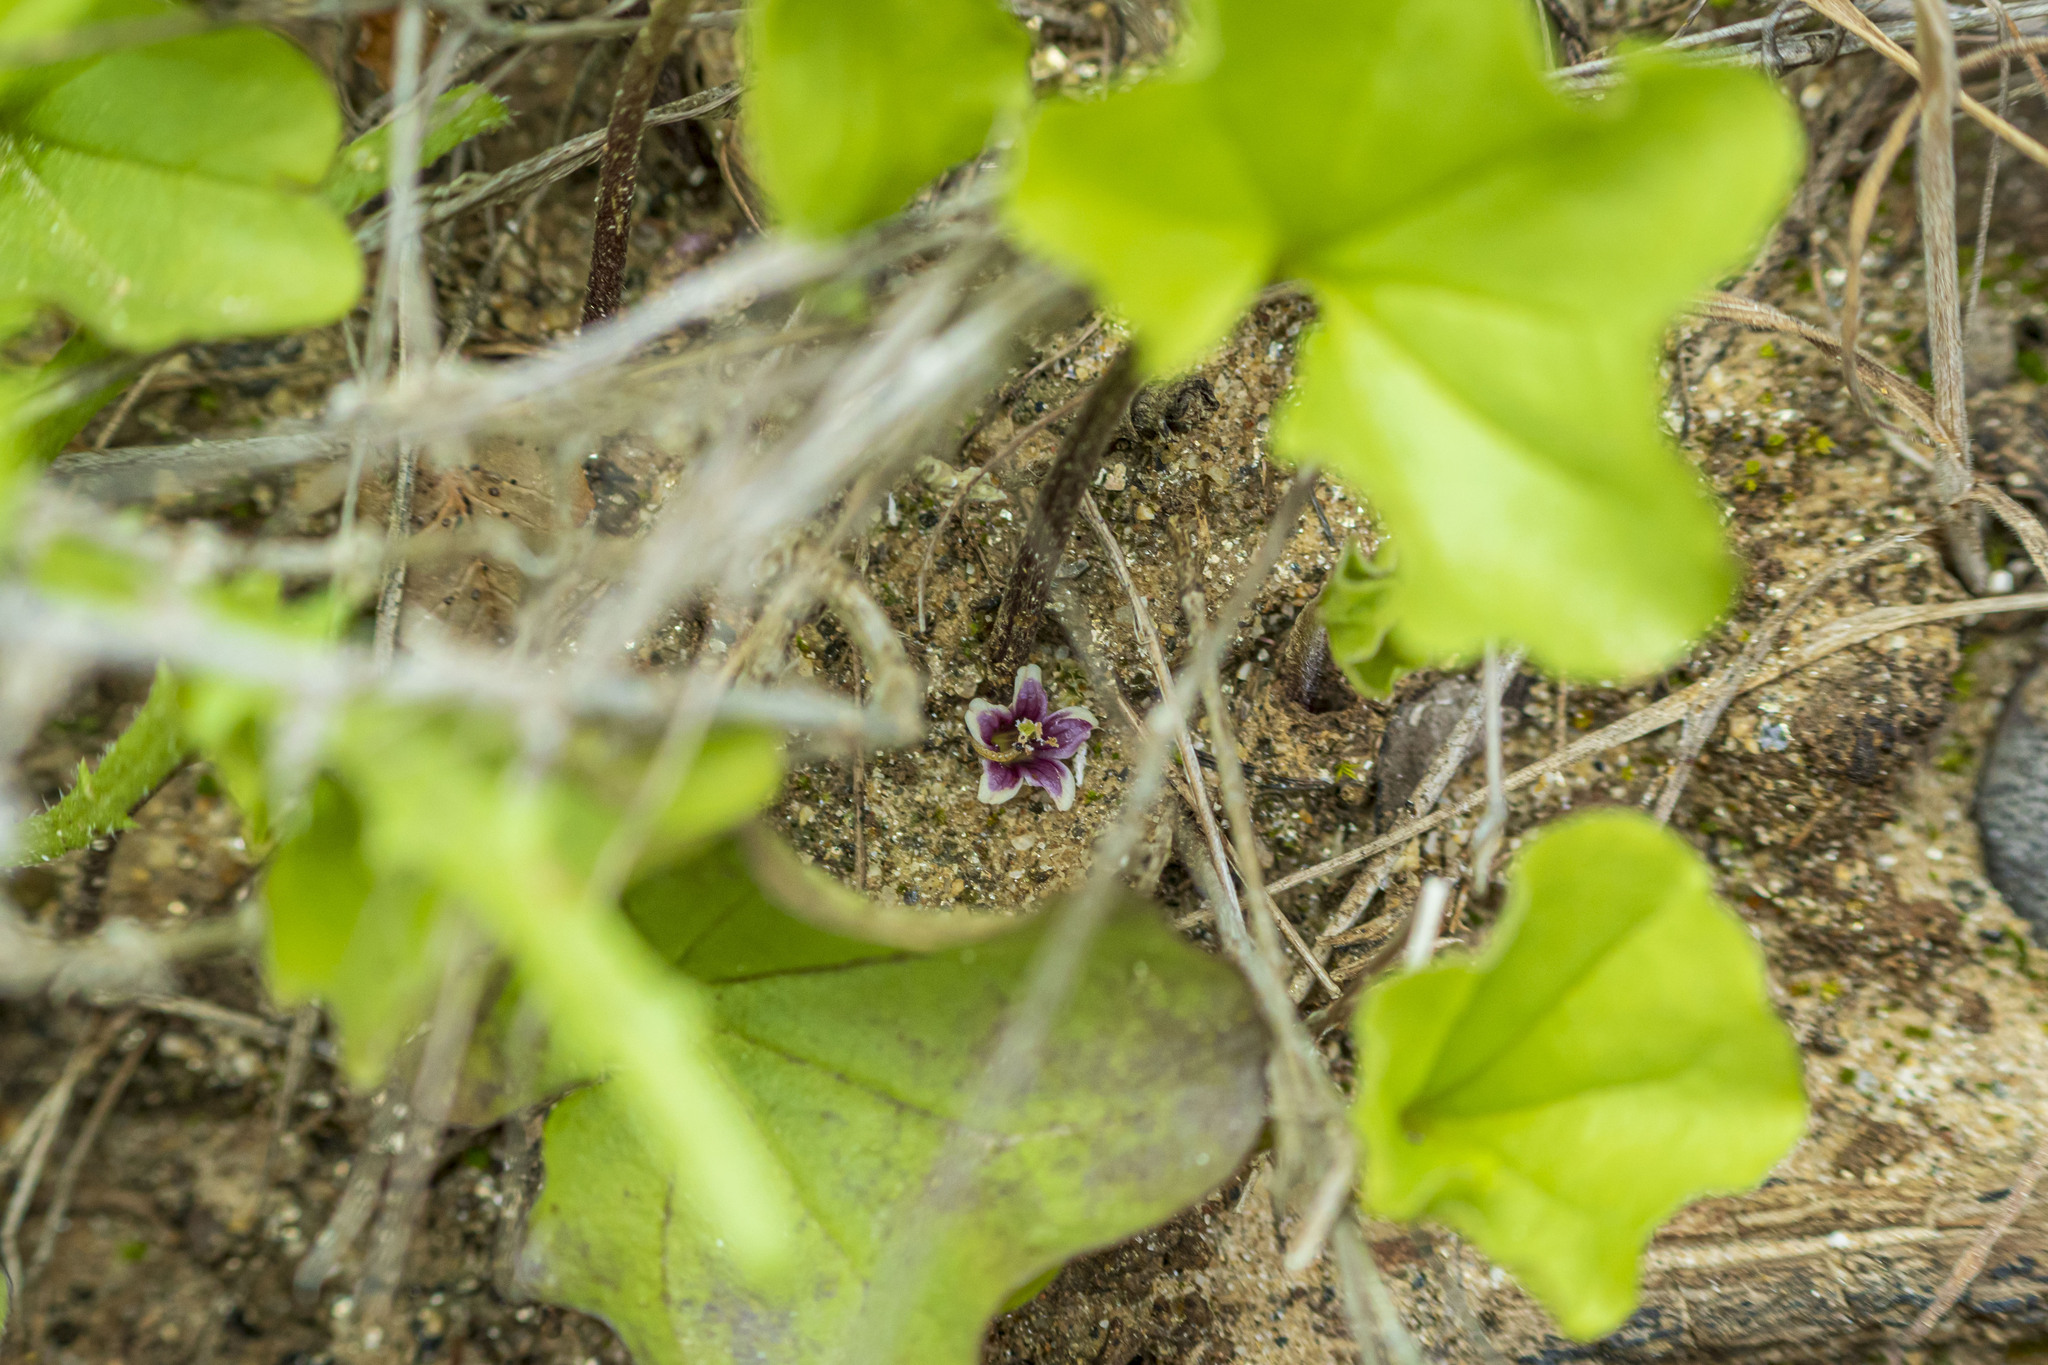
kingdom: Plantae
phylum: Tracheophyta
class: Magnoliopsida
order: Solanales
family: Convolvulaceae
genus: Dichondra
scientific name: Dichondra occidentalis
